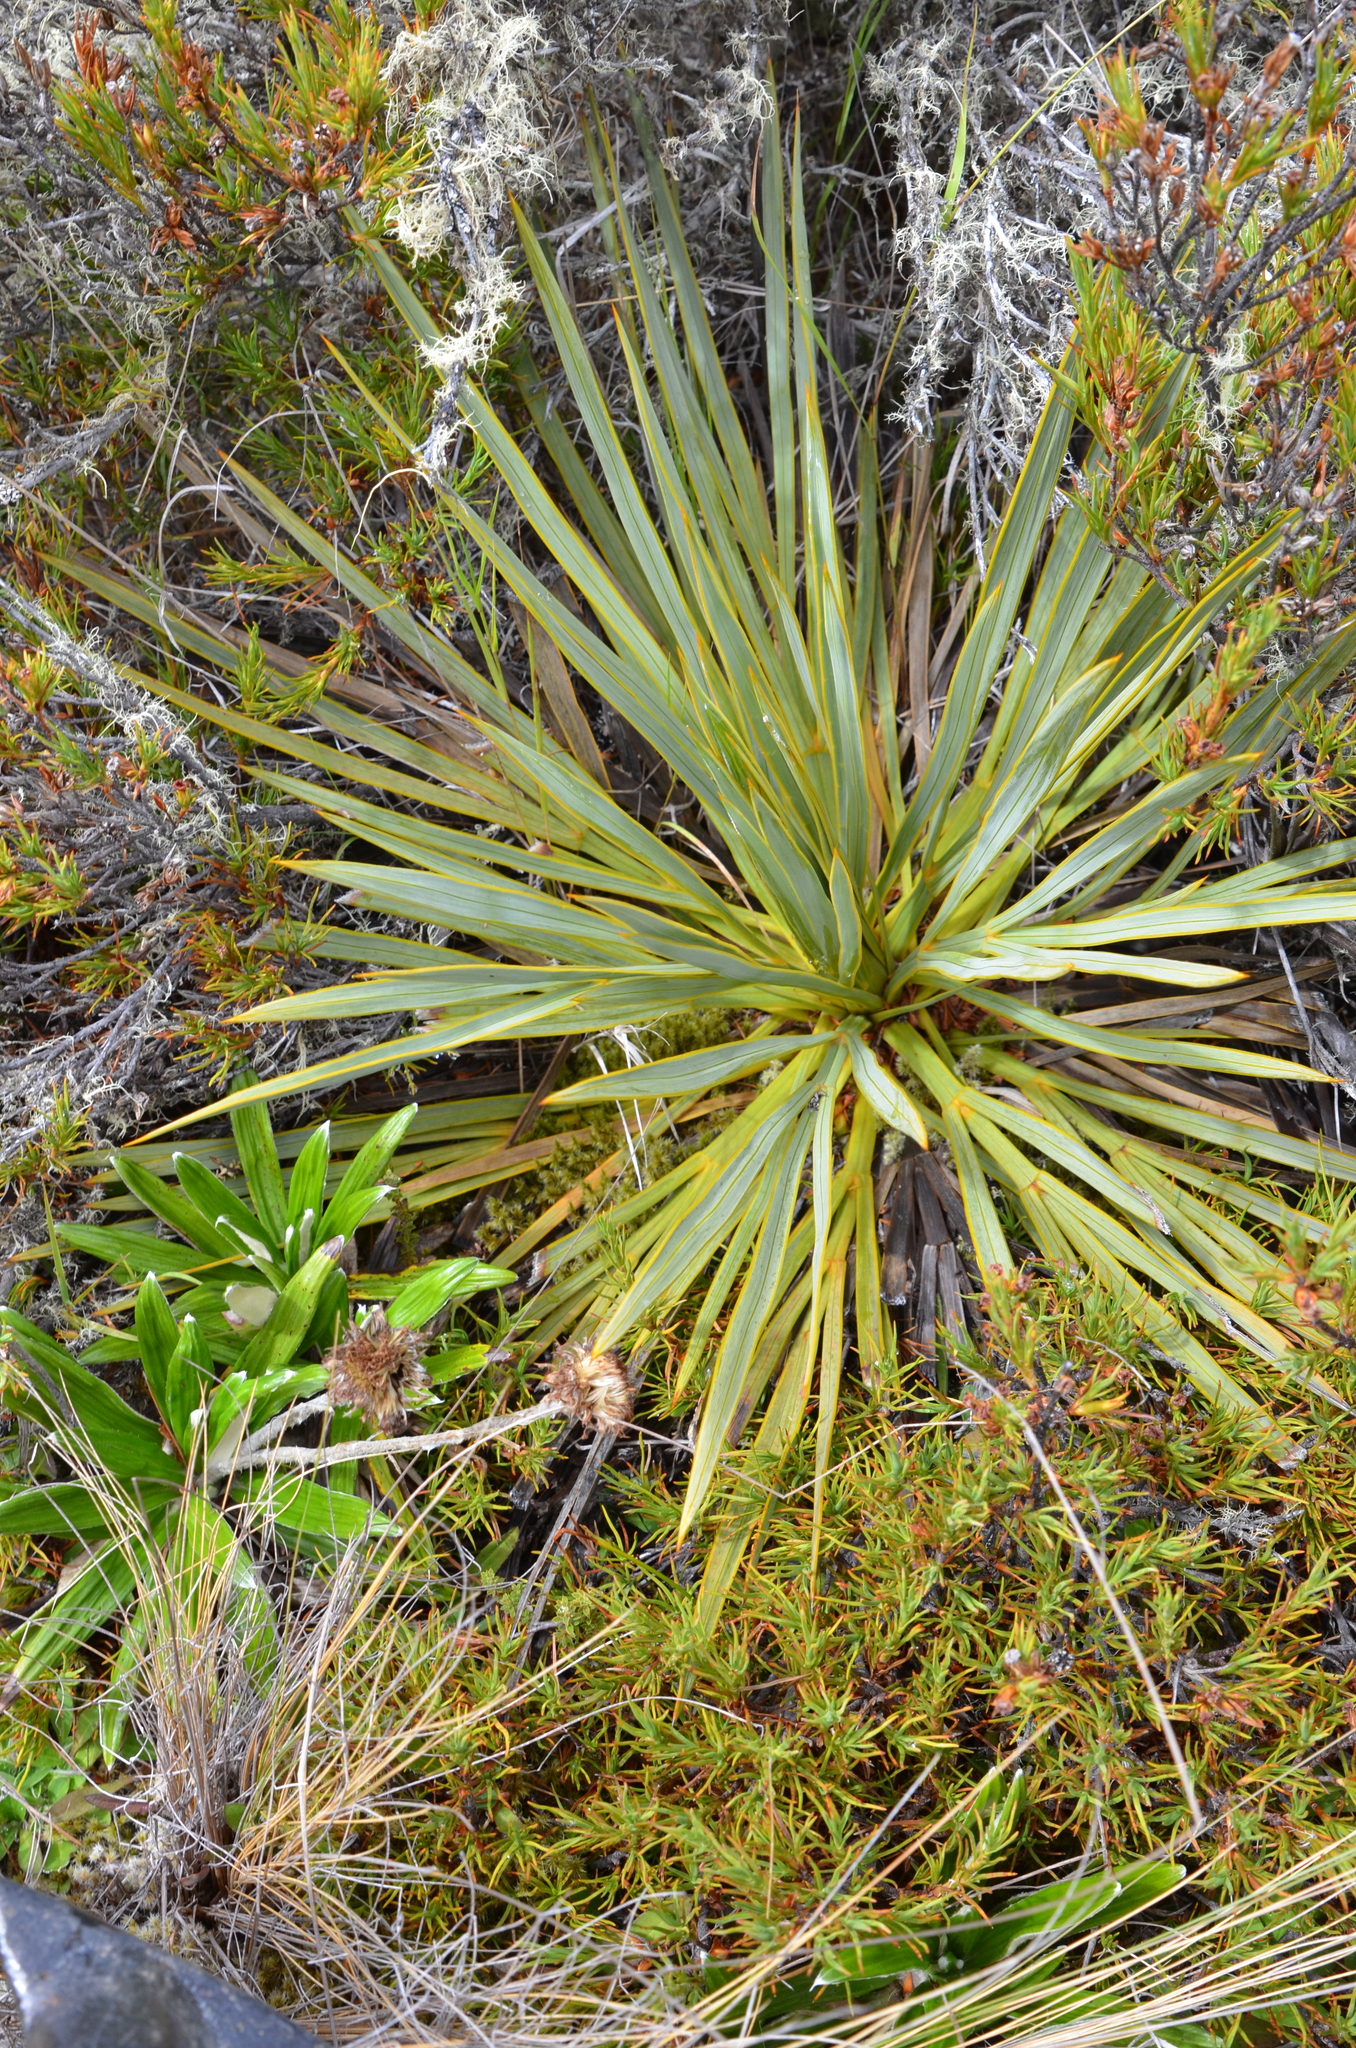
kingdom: Plantae
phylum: Tracheophyta
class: Magnoliopsida
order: Apiales
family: Apiaceae
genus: Aciphylla
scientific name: Aciphylla aurea
